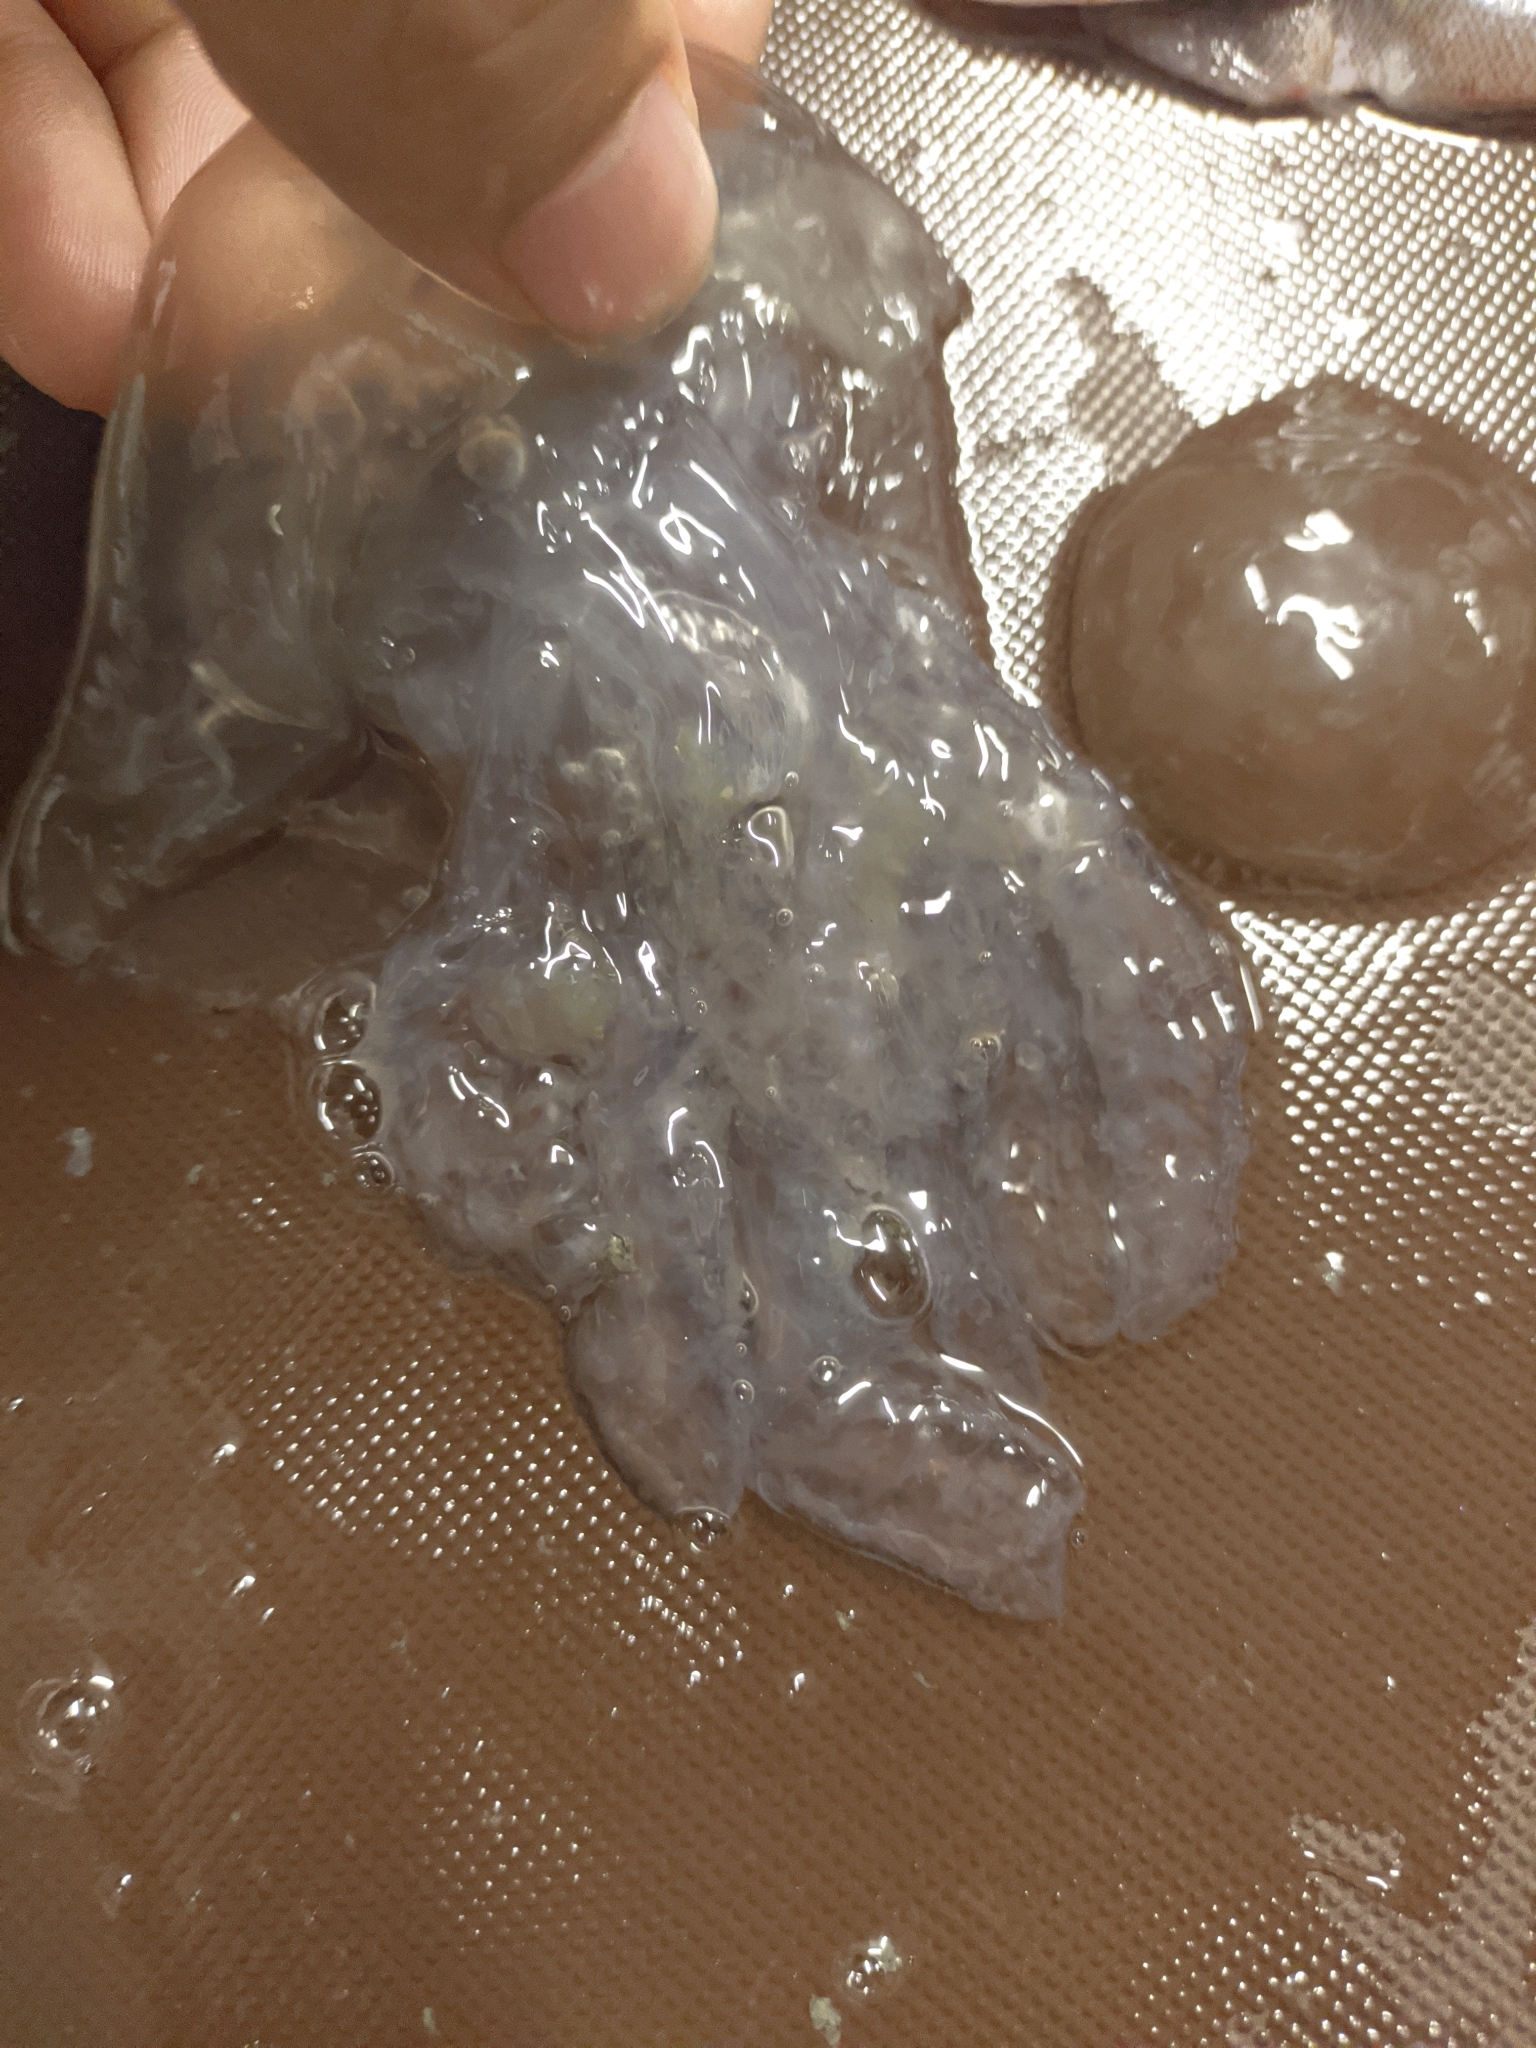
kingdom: Animalia
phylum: Cnidaria
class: Scyphozoa
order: Rhizostomeae
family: Lychnorhizidae
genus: Lychnorhiza
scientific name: Lychnorhiza
